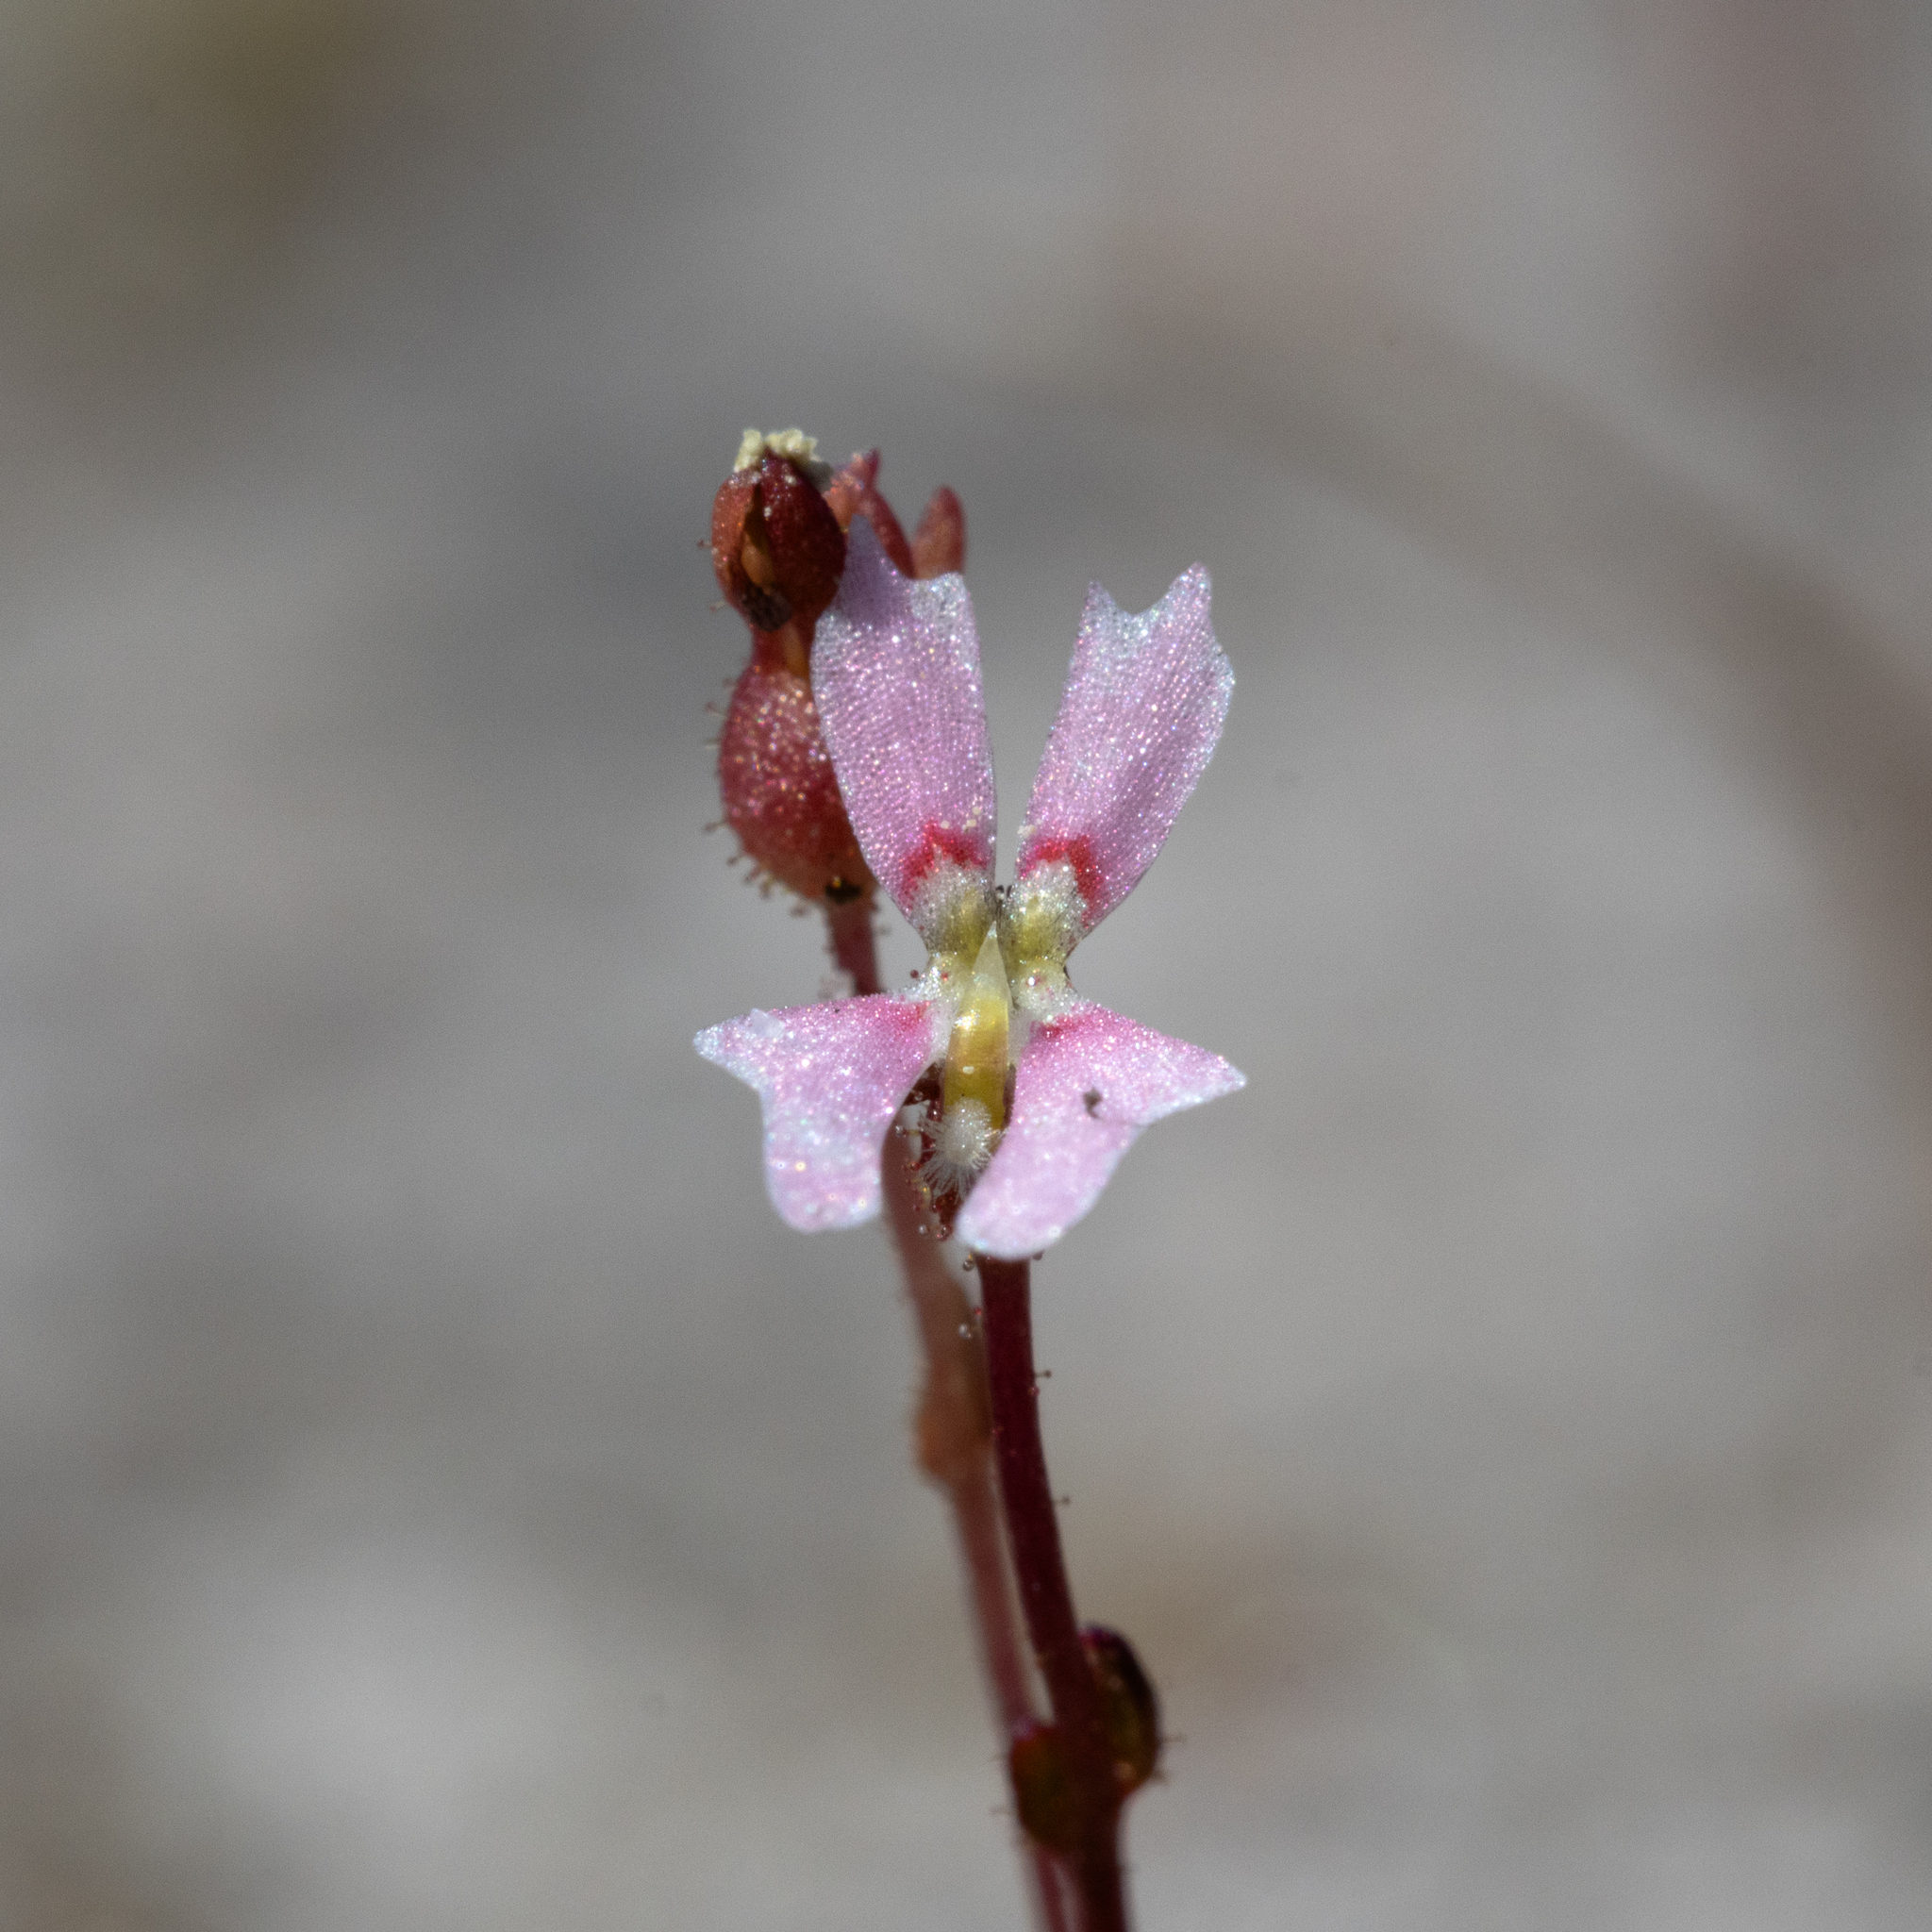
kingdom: Plantae
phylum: Tracheophyta
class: Magnoliopsida
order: Asterales
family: Stylidiaceae
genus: Stylidium
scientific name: Stylidium calcaratum
